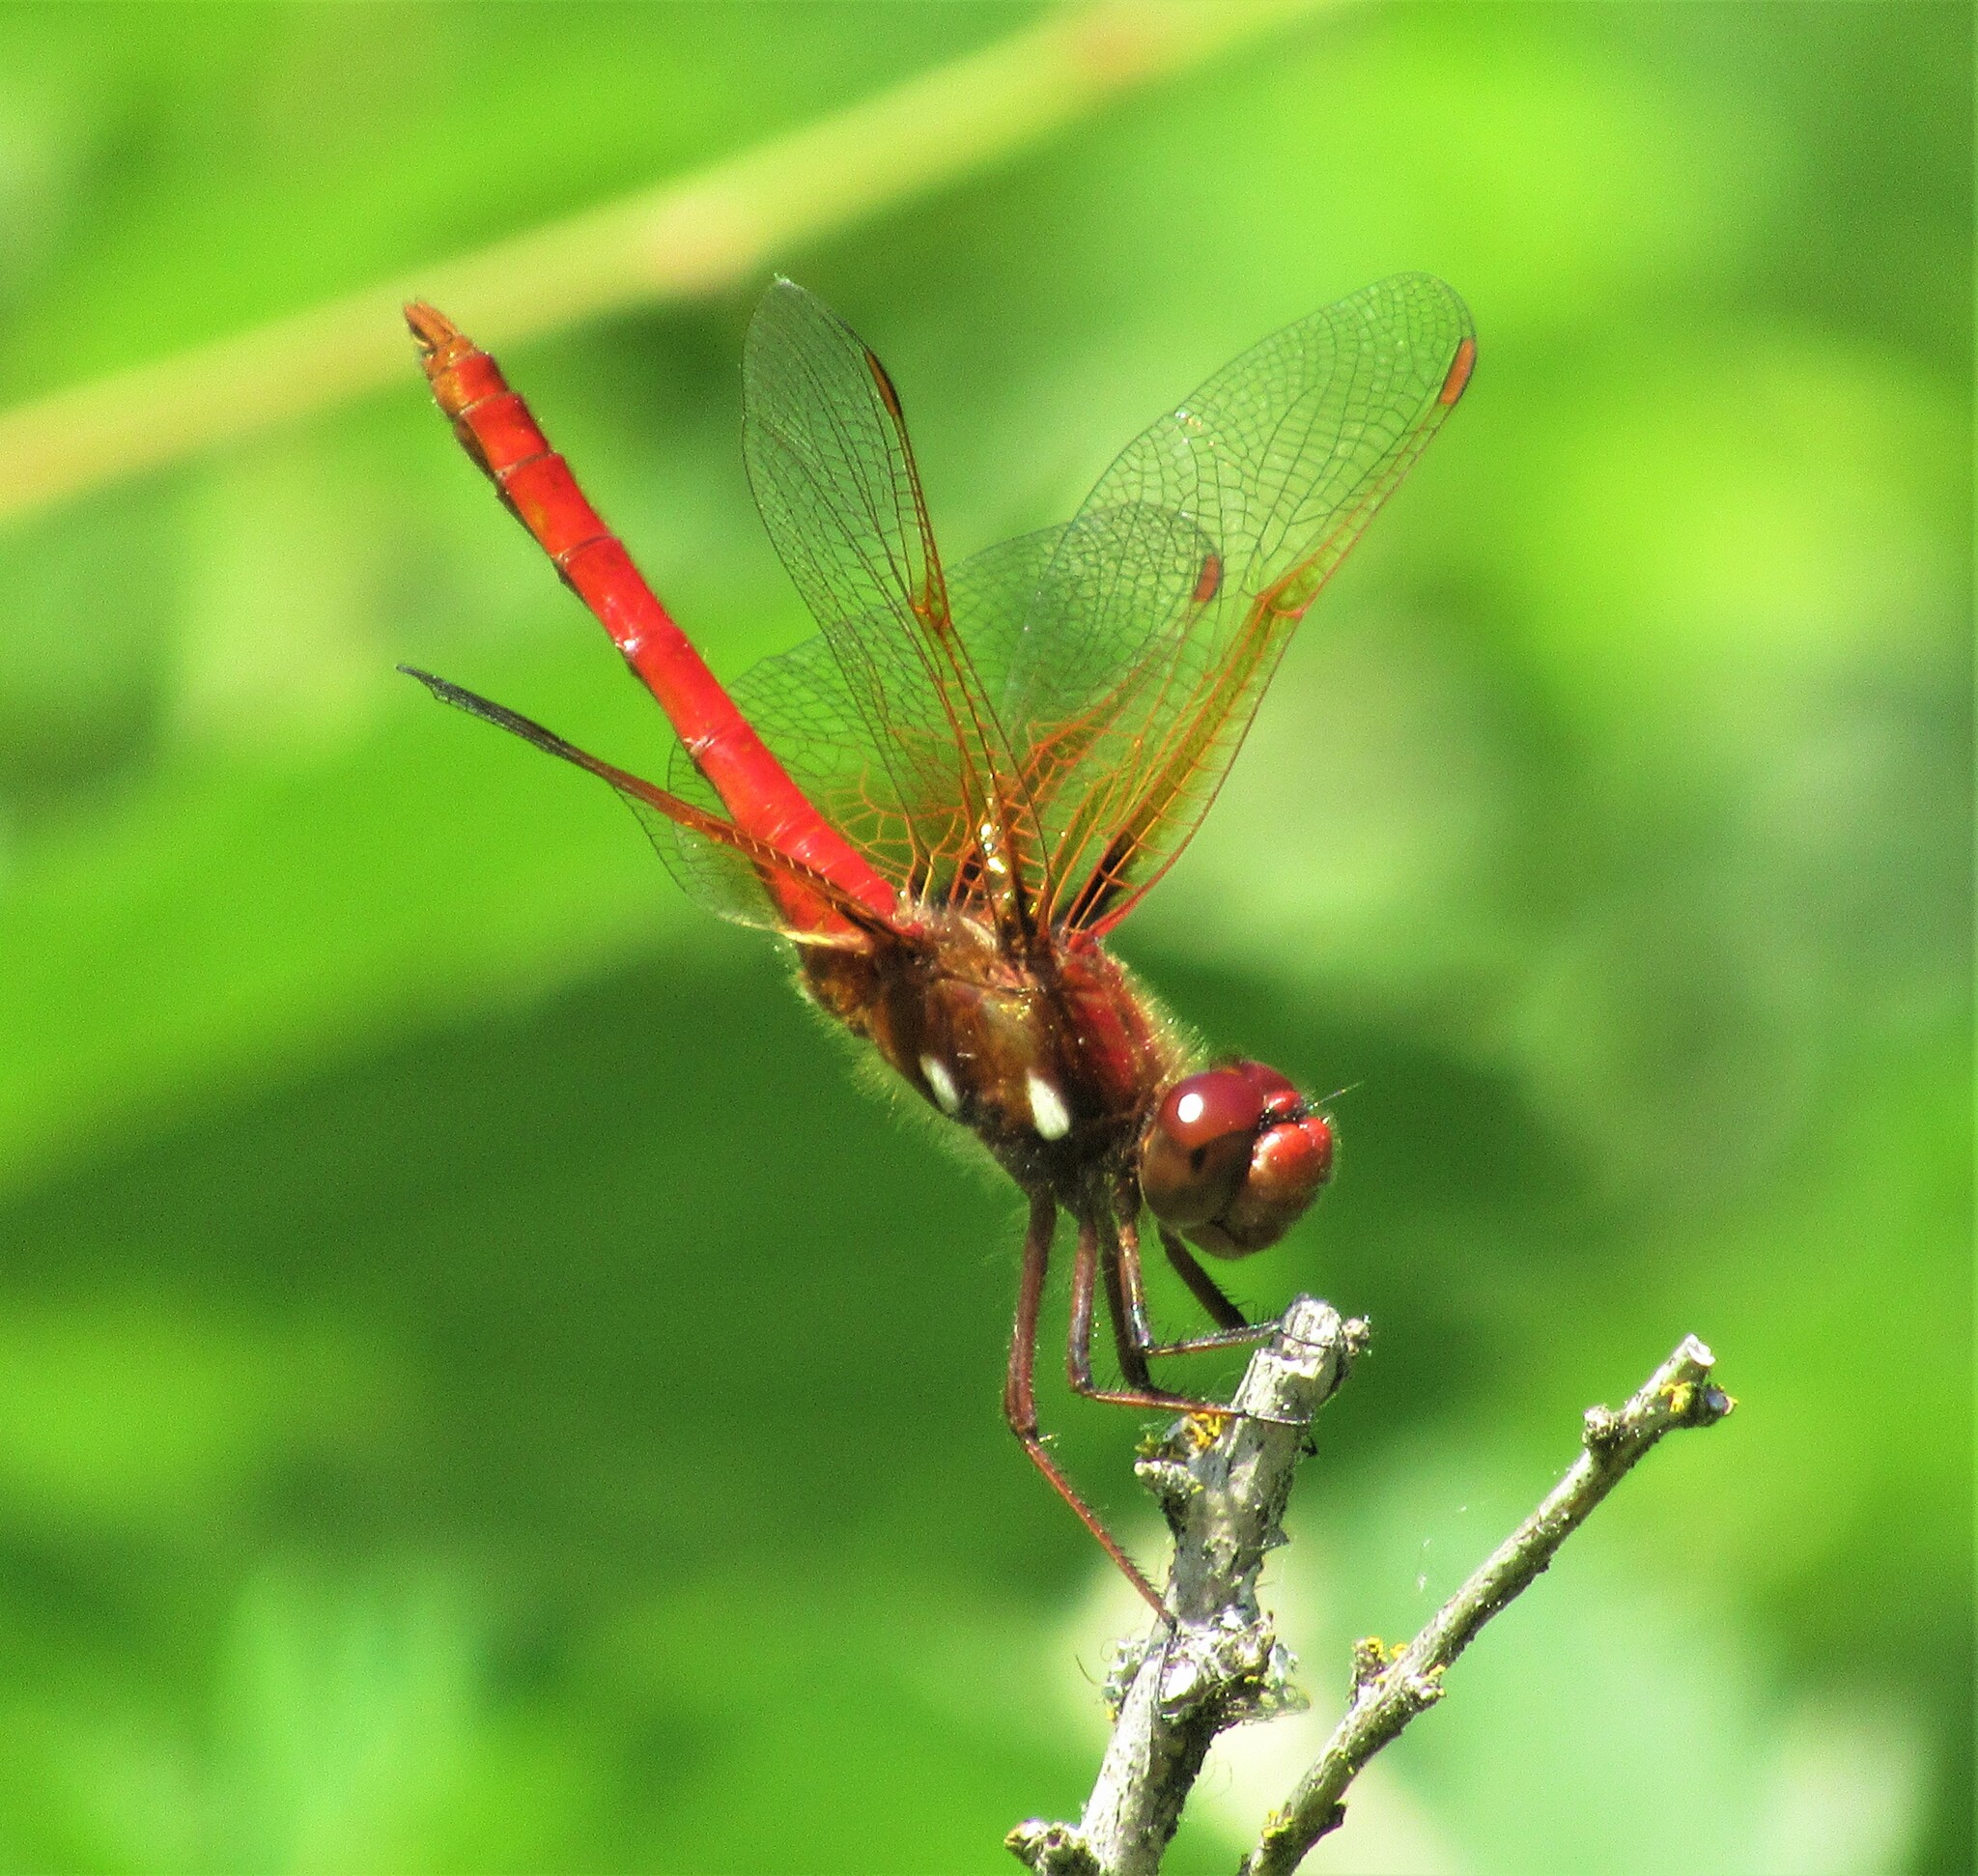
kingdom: Animalia
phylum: Arthropoda
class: Insecta
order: Odonata
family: Libellulidae
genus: Sympetrum
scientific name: Sympetrum illotum
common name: Cardinal meadowhawk
